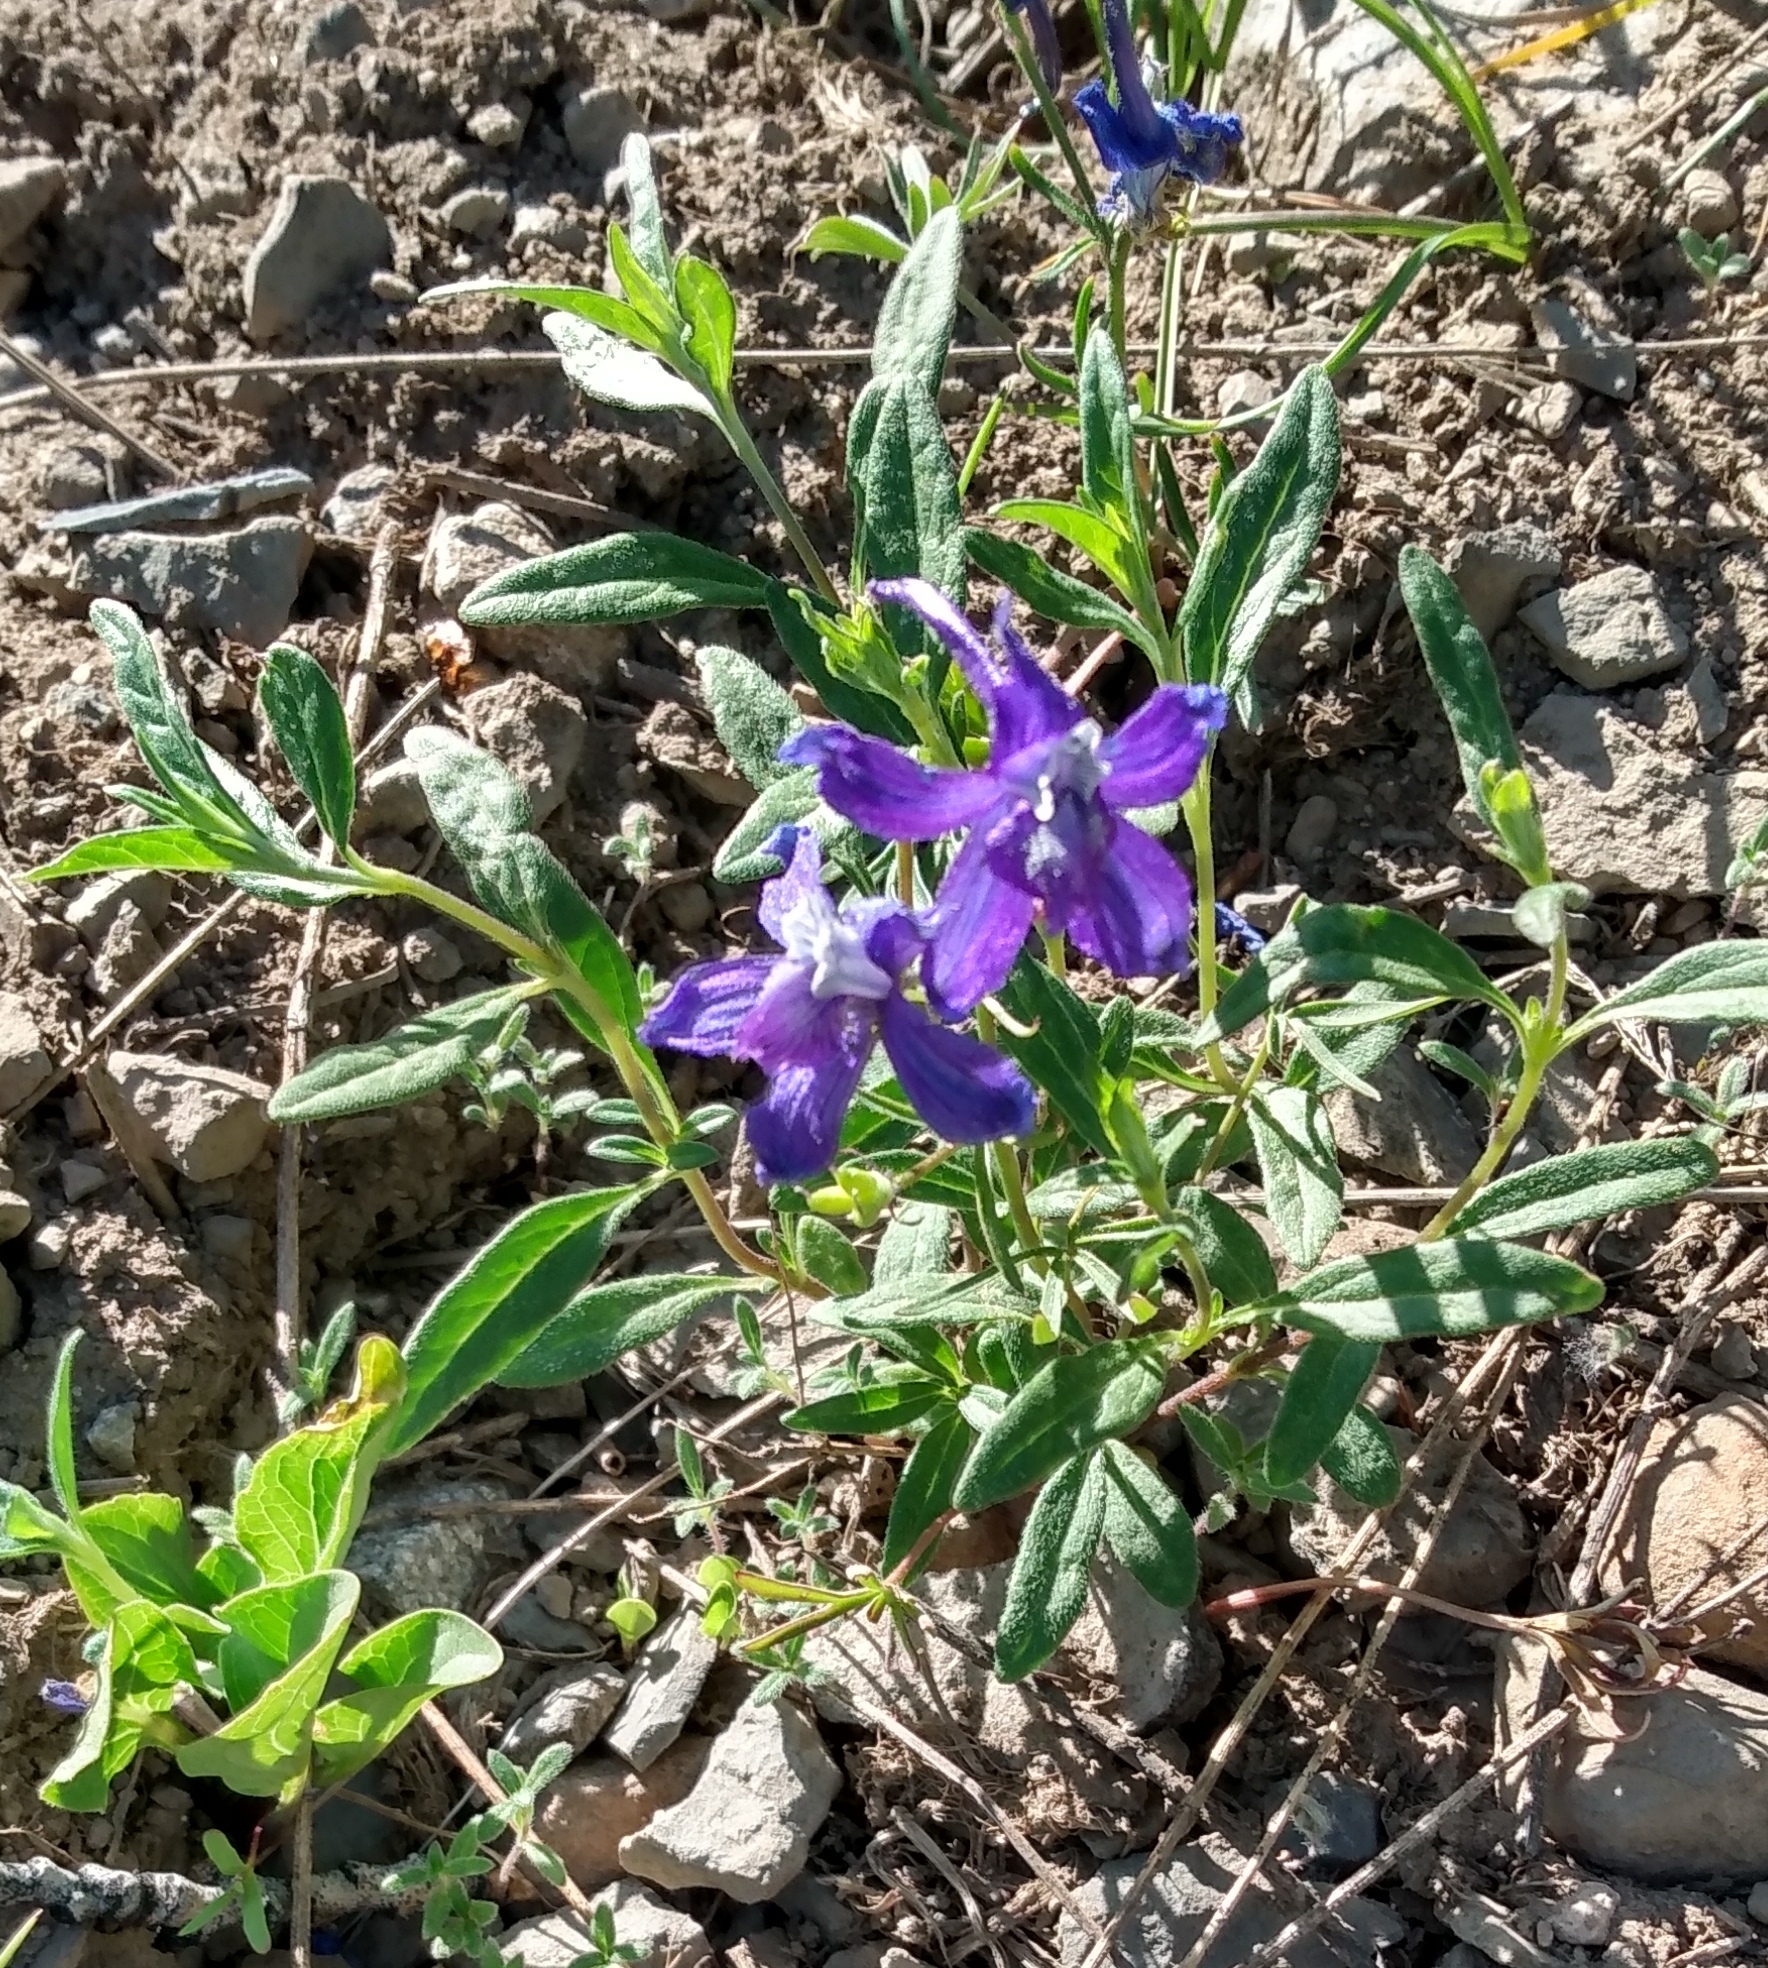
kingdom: Plantae
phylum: Tracheophyta
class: Magnoliopsida
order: Ranunculales
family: Ranunculaceae
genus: Delphinium
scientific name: Delphinium nuttallianum
